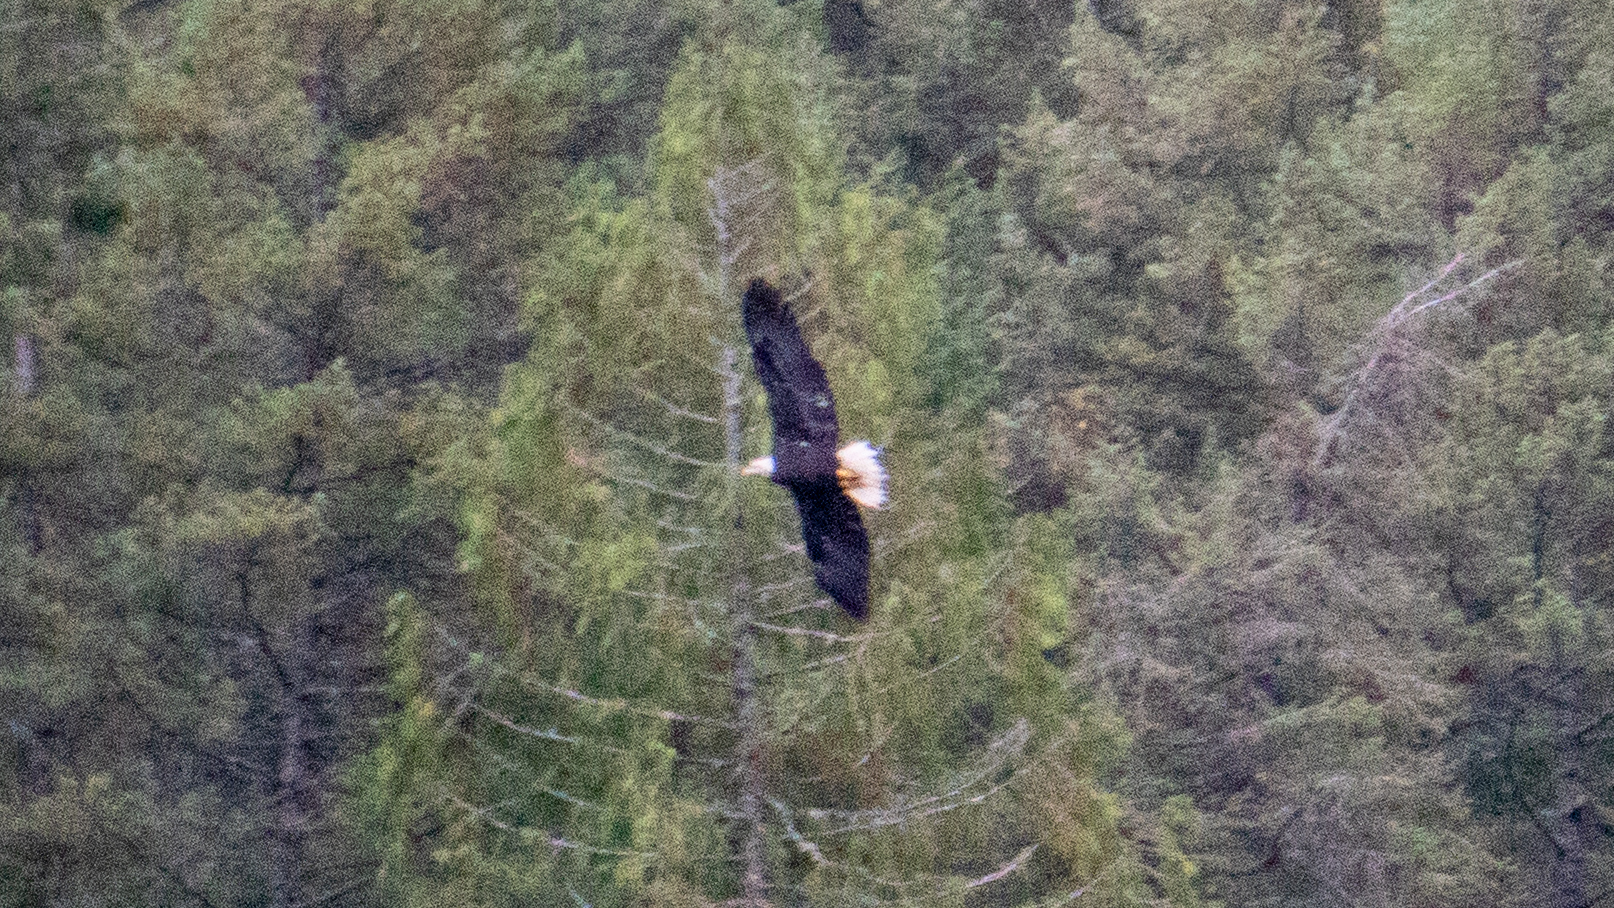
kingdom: Animalia
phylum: Chordata
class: Aves
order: Accipitriformes
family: Accipitridae
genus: Haliaeetus
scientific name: Haliaeetus leucocephalus
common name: Bald eagle
